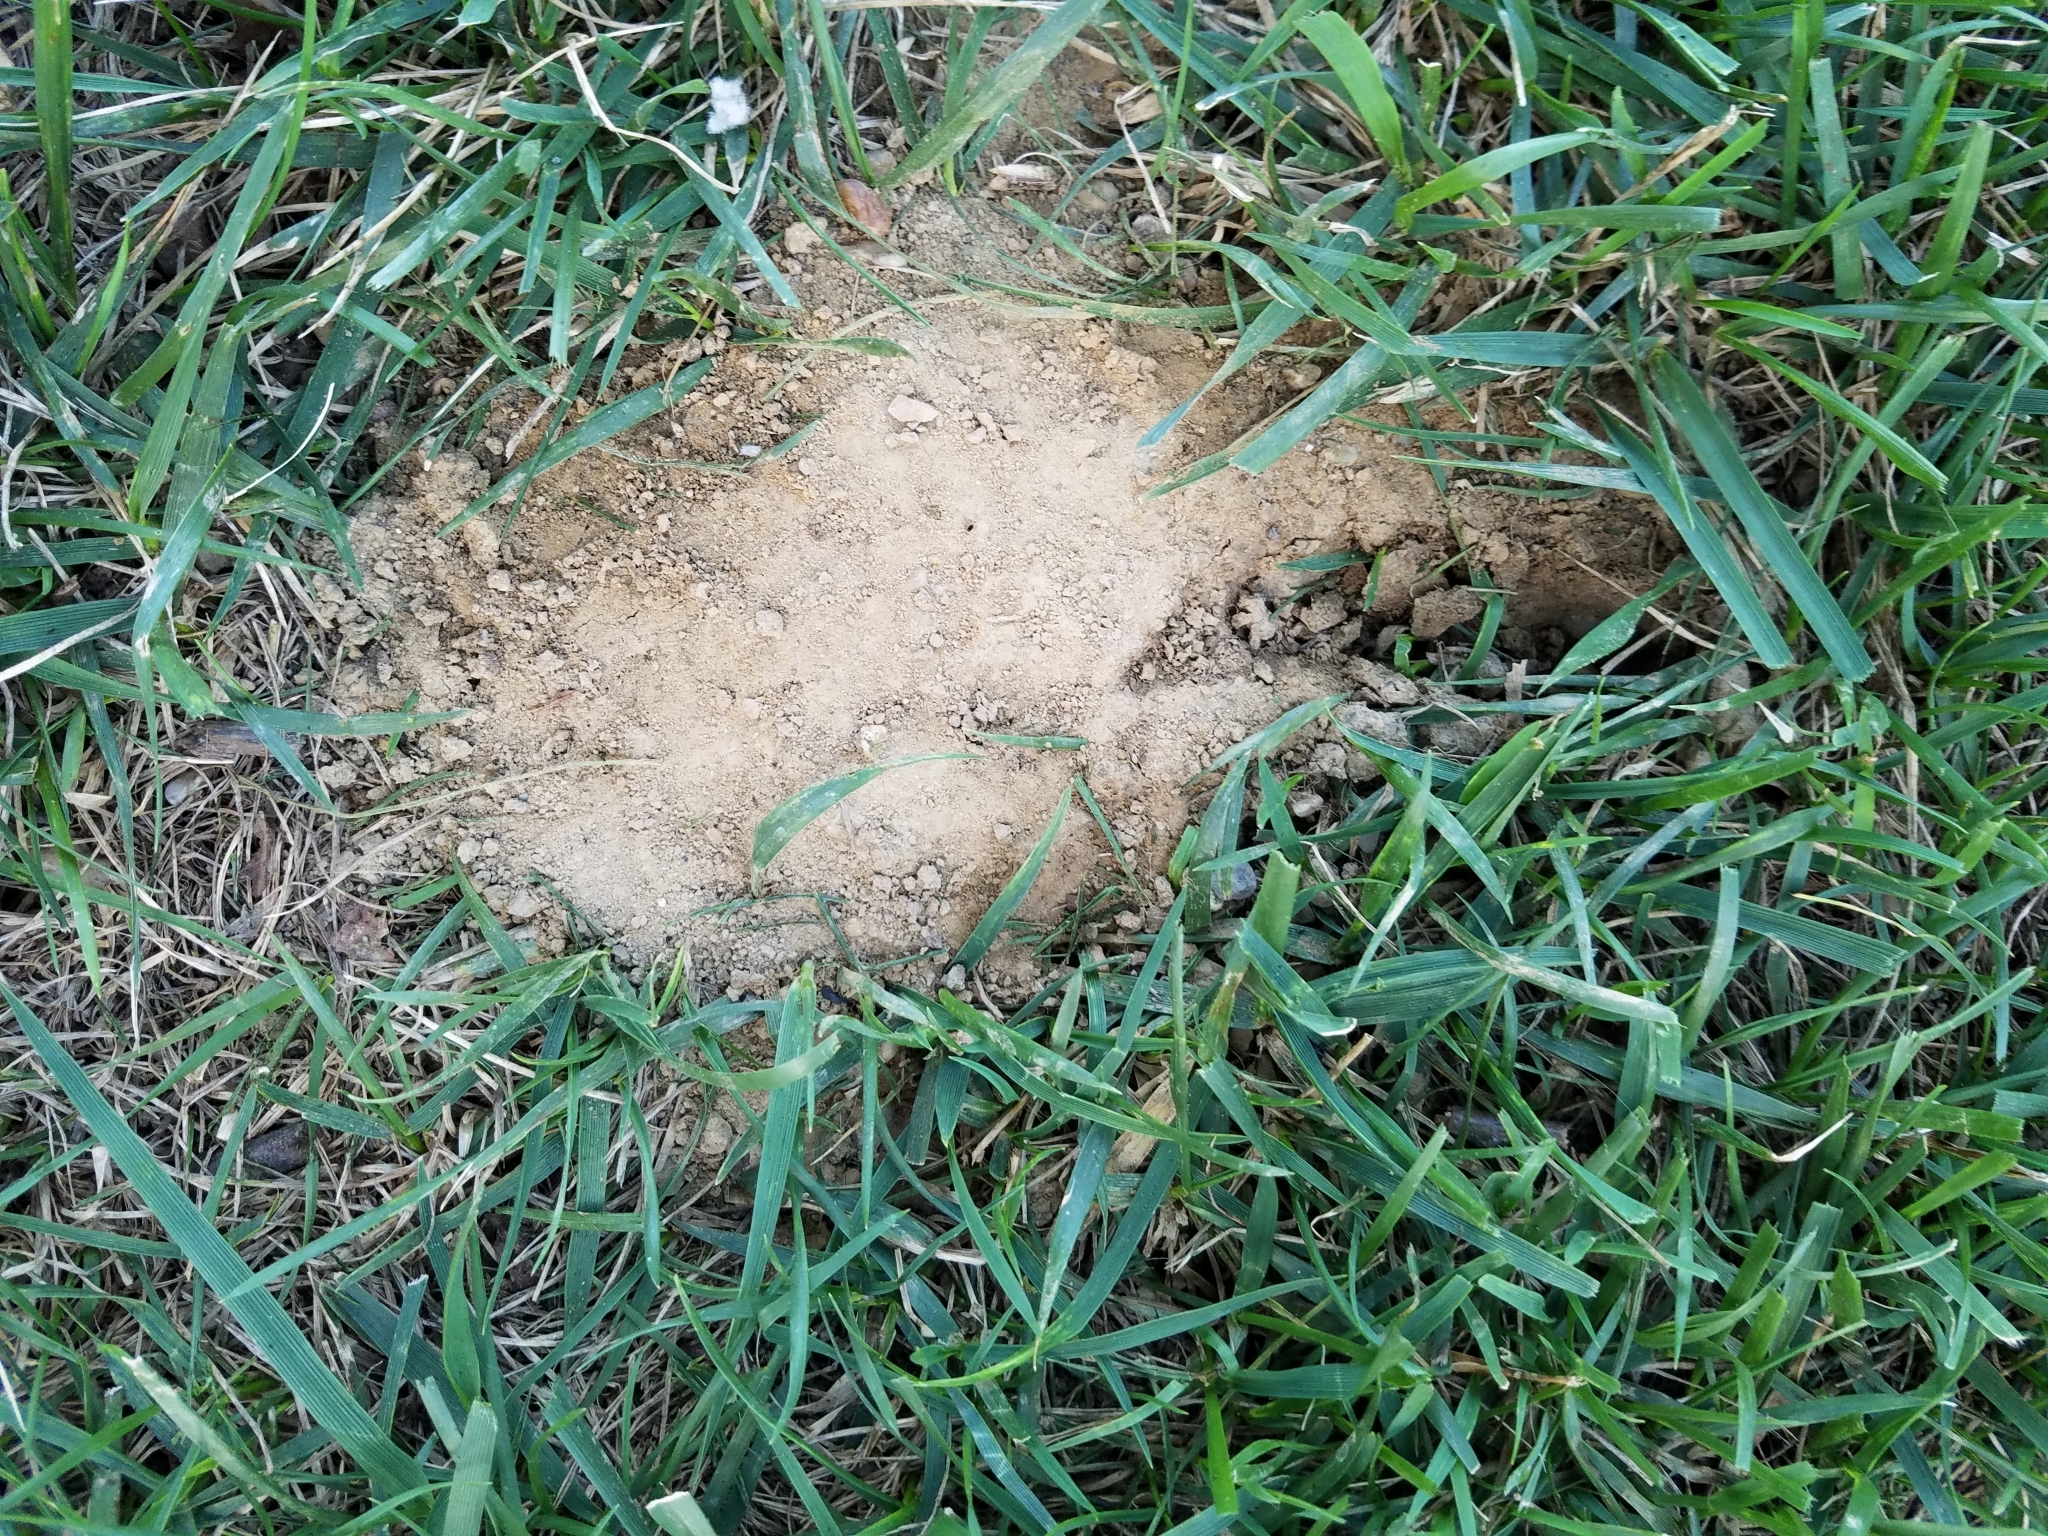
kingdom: Animalia
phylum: Arthropoda
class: Insecta
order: Hymenoptera
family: Crabronidae
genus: Sphecius
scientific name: Sphecius speciosus
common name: Cicada killer
